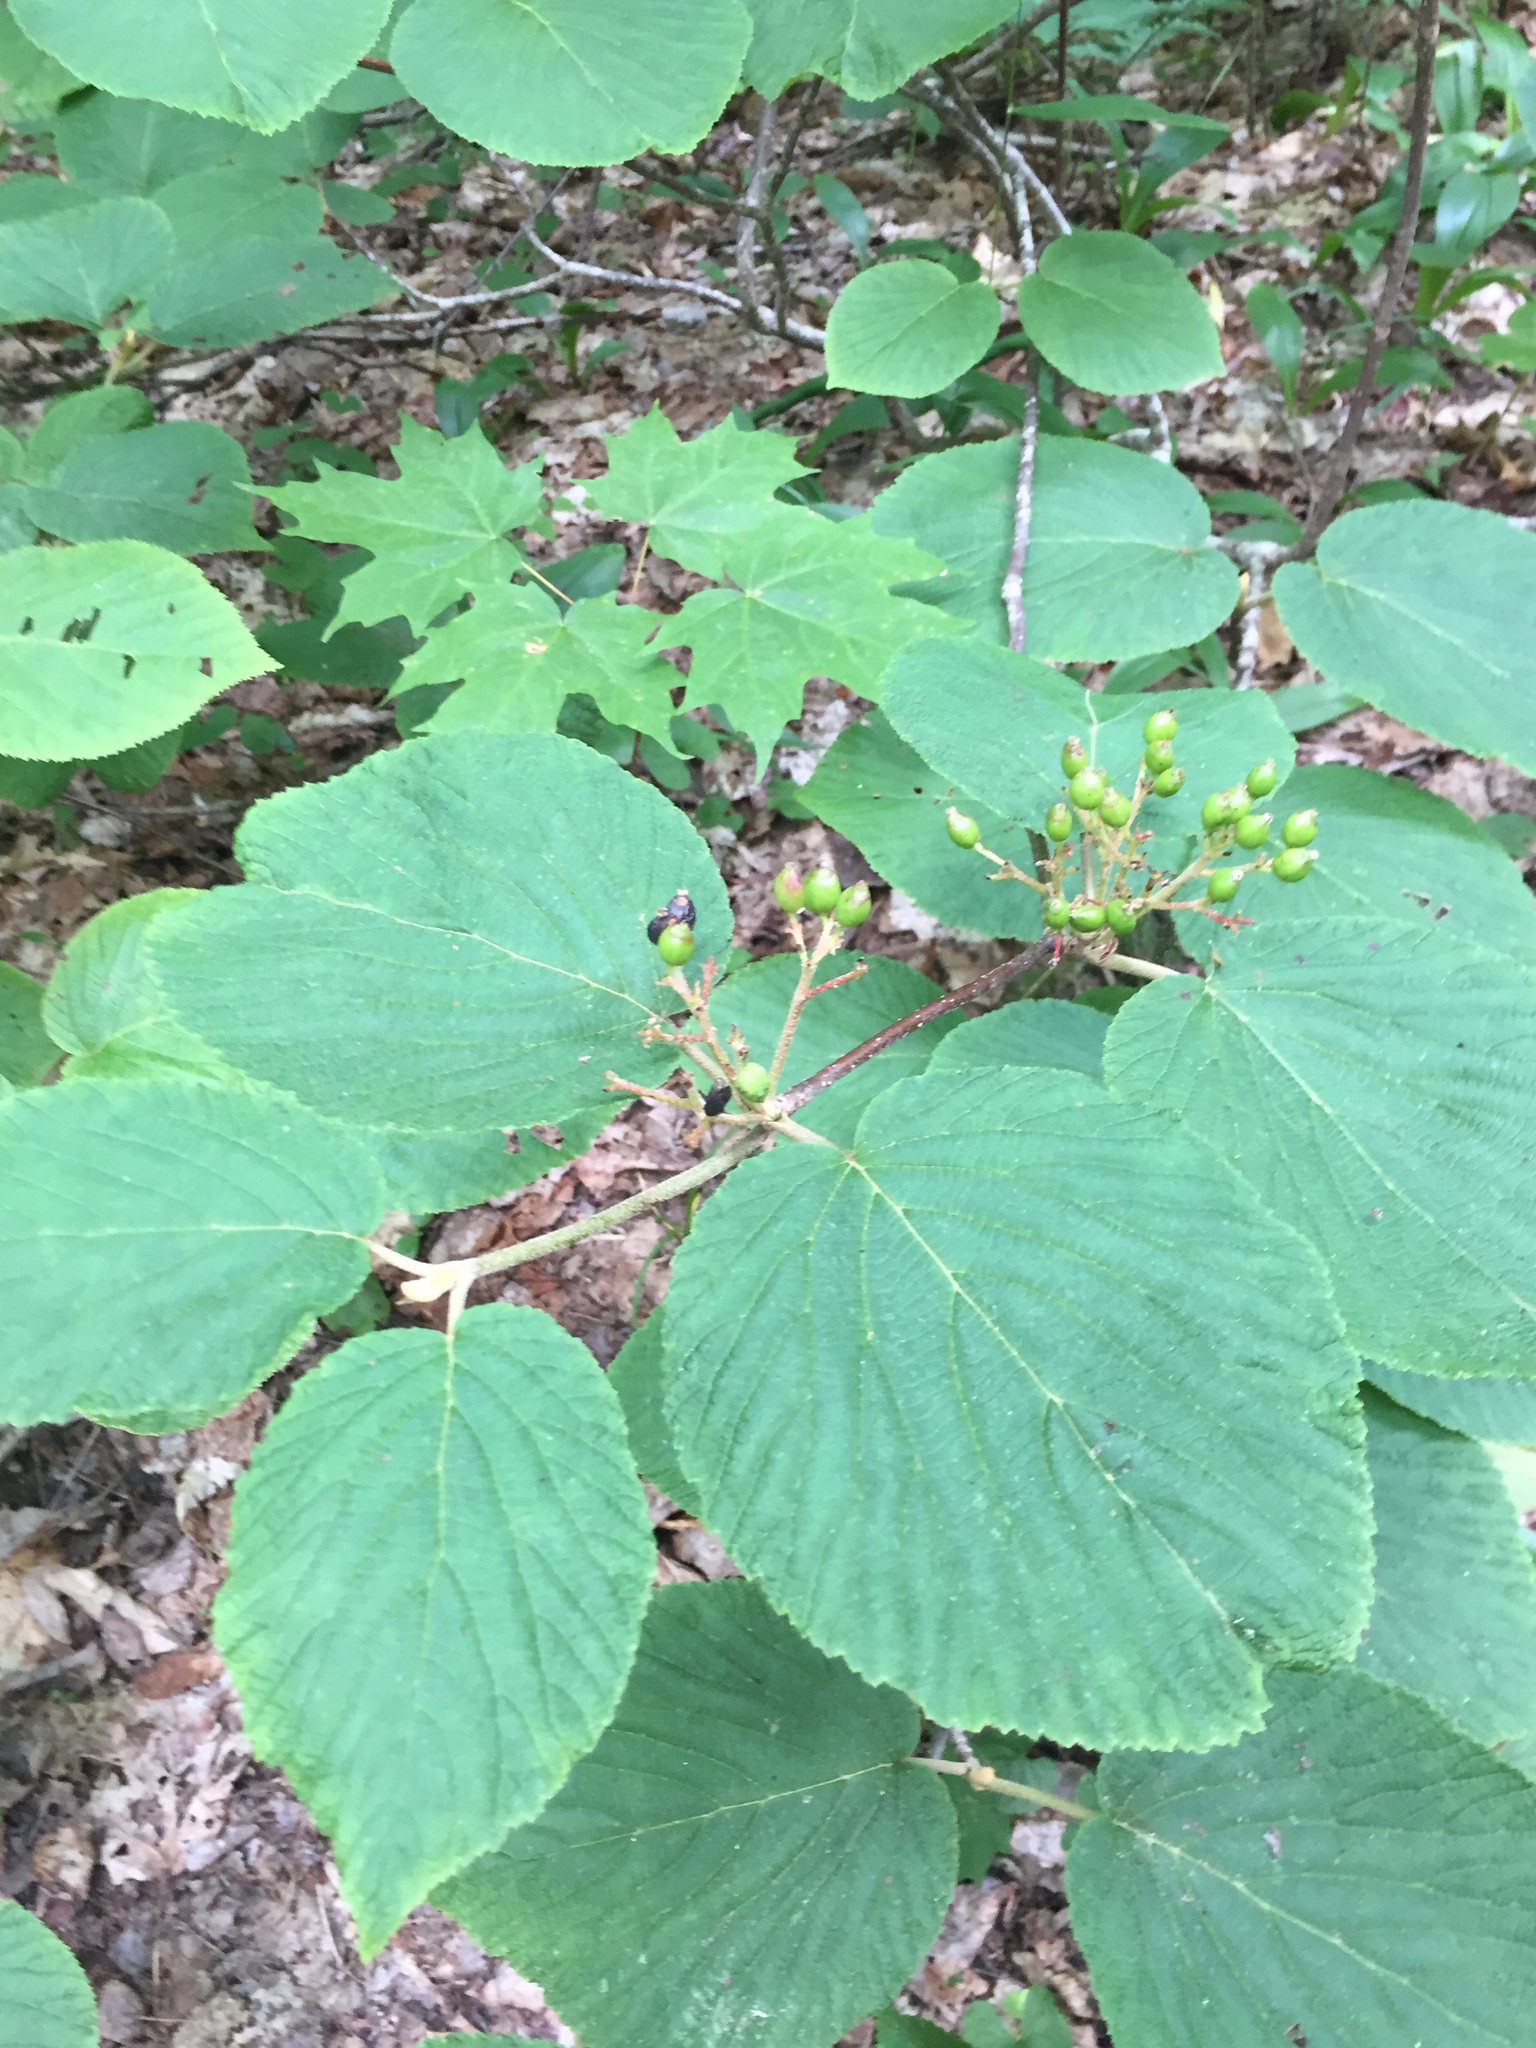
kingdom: Plantae
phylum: Tracheophyta
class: Magnoliopsida
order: Dipsacales
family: Viburnaceae
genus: Viburnum
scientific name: Viburnum lantanoides
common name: Hobblebush
